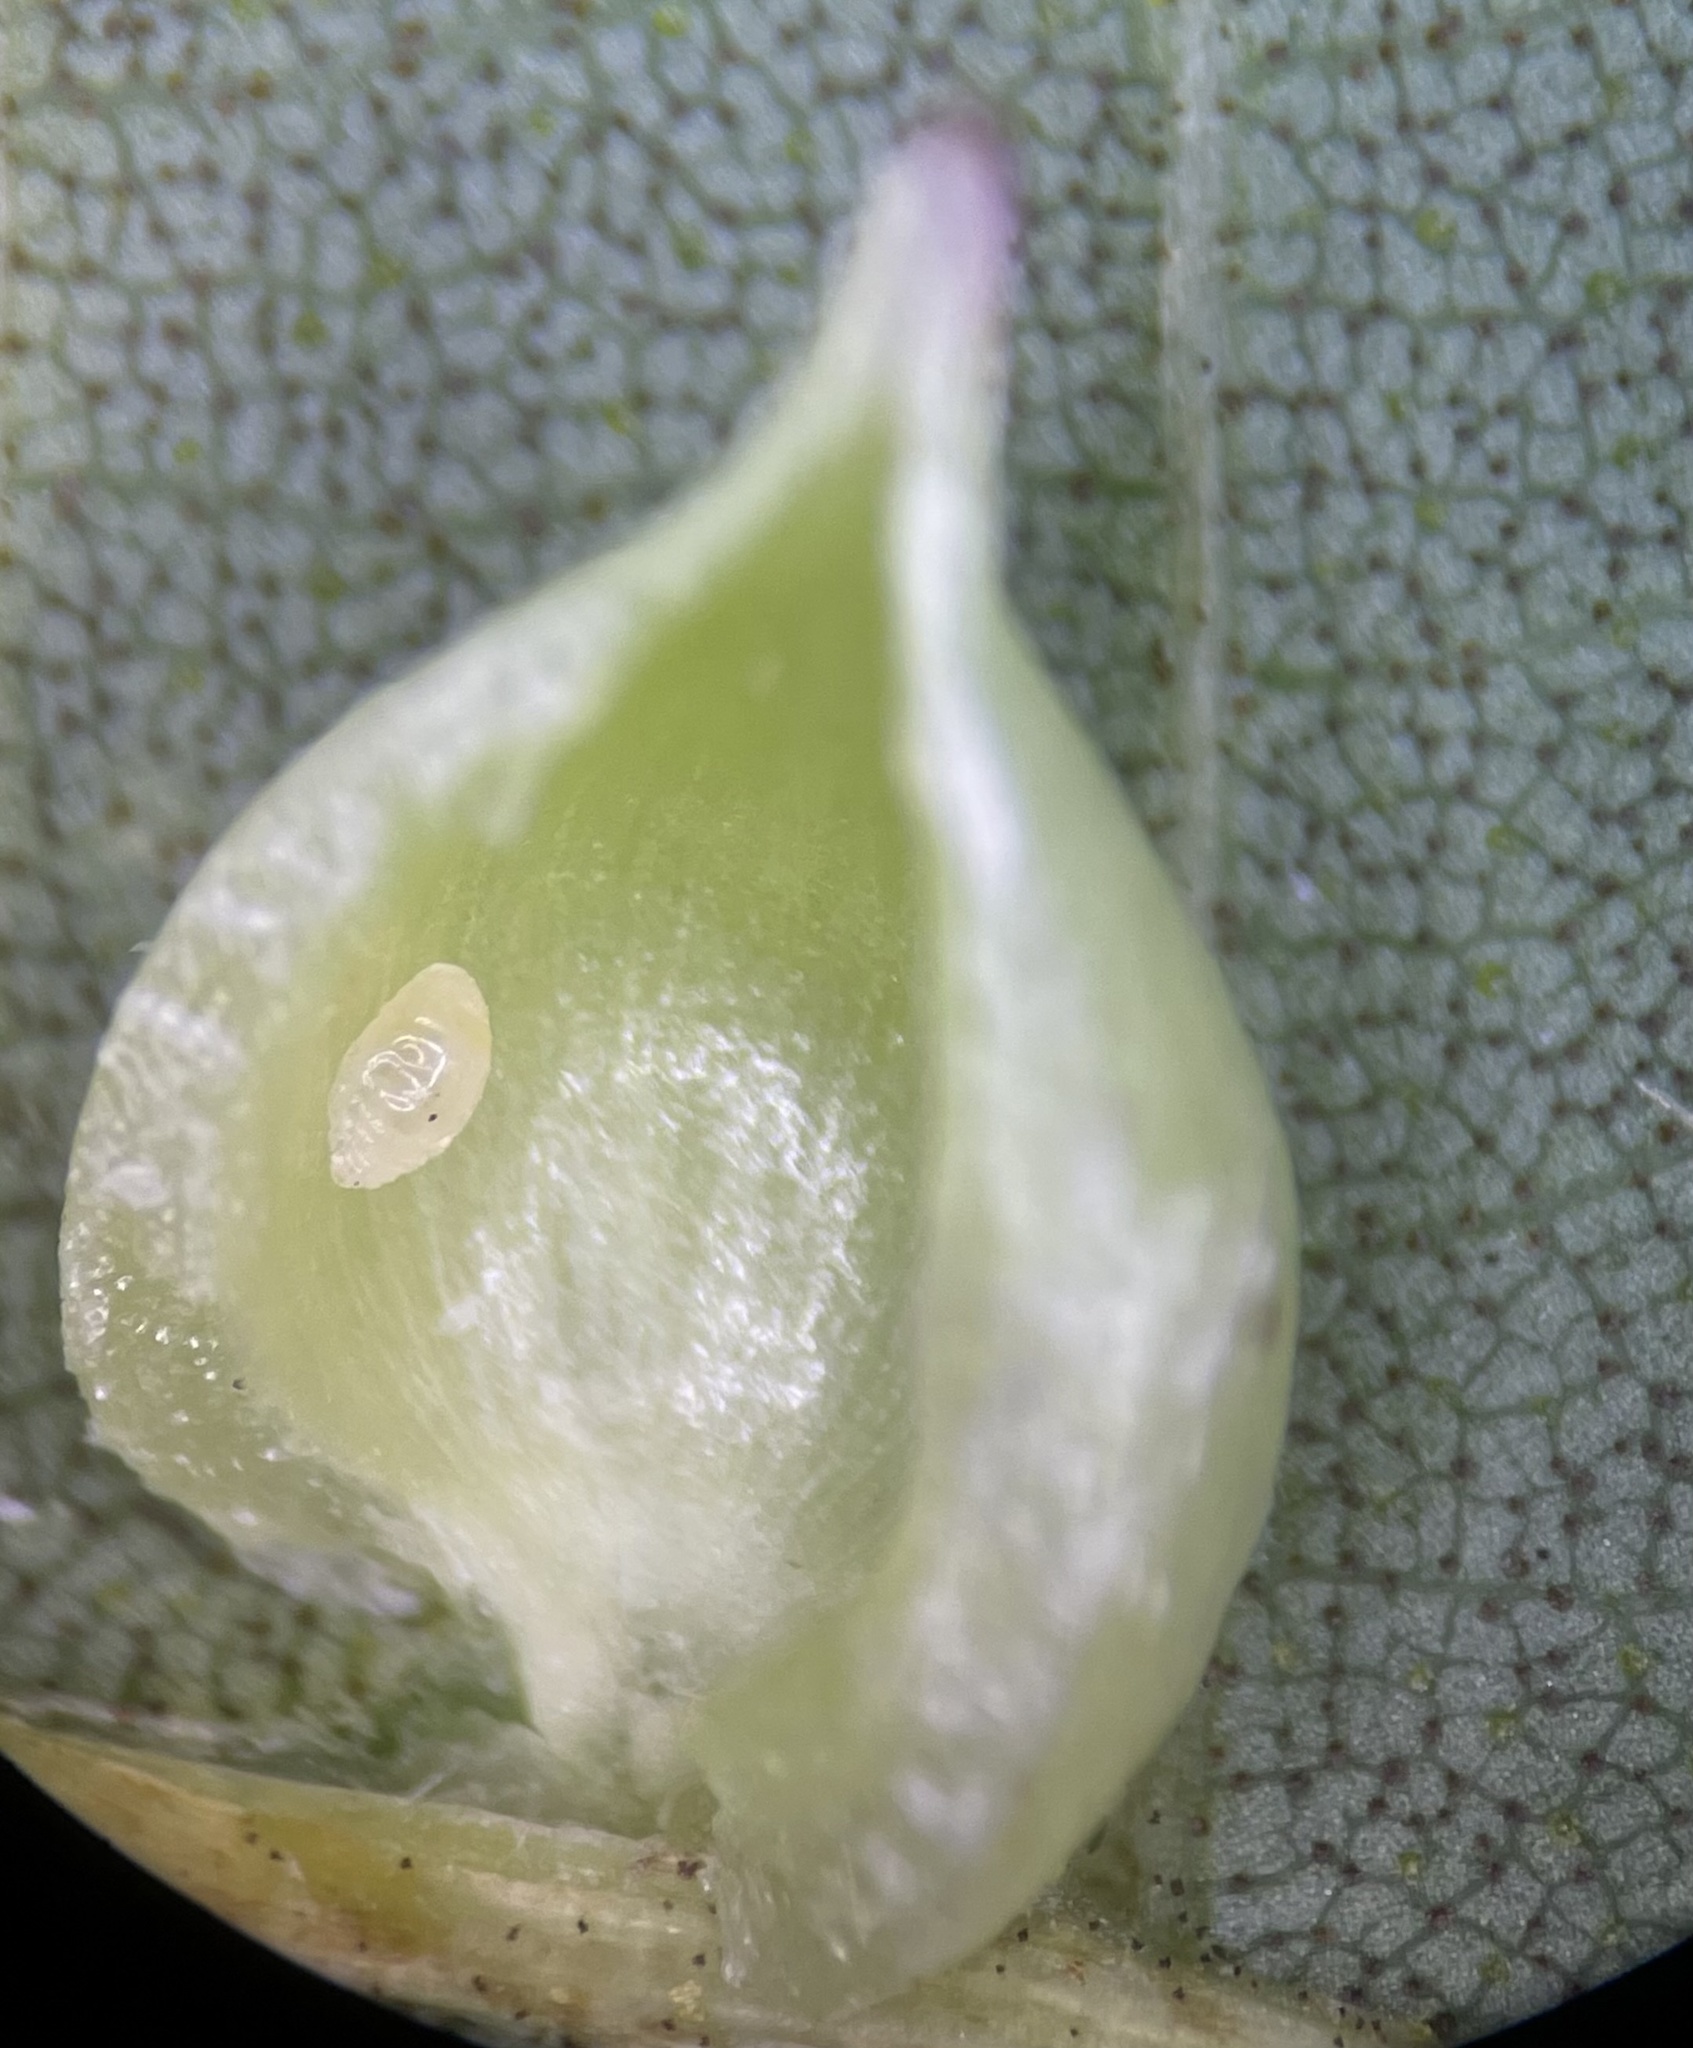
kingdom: Animalia
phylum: Arthropoda
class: Insecta
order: Diptera
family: Cecidomyiidae
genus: Caryomyia
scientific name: Caryomyia caryaecola
